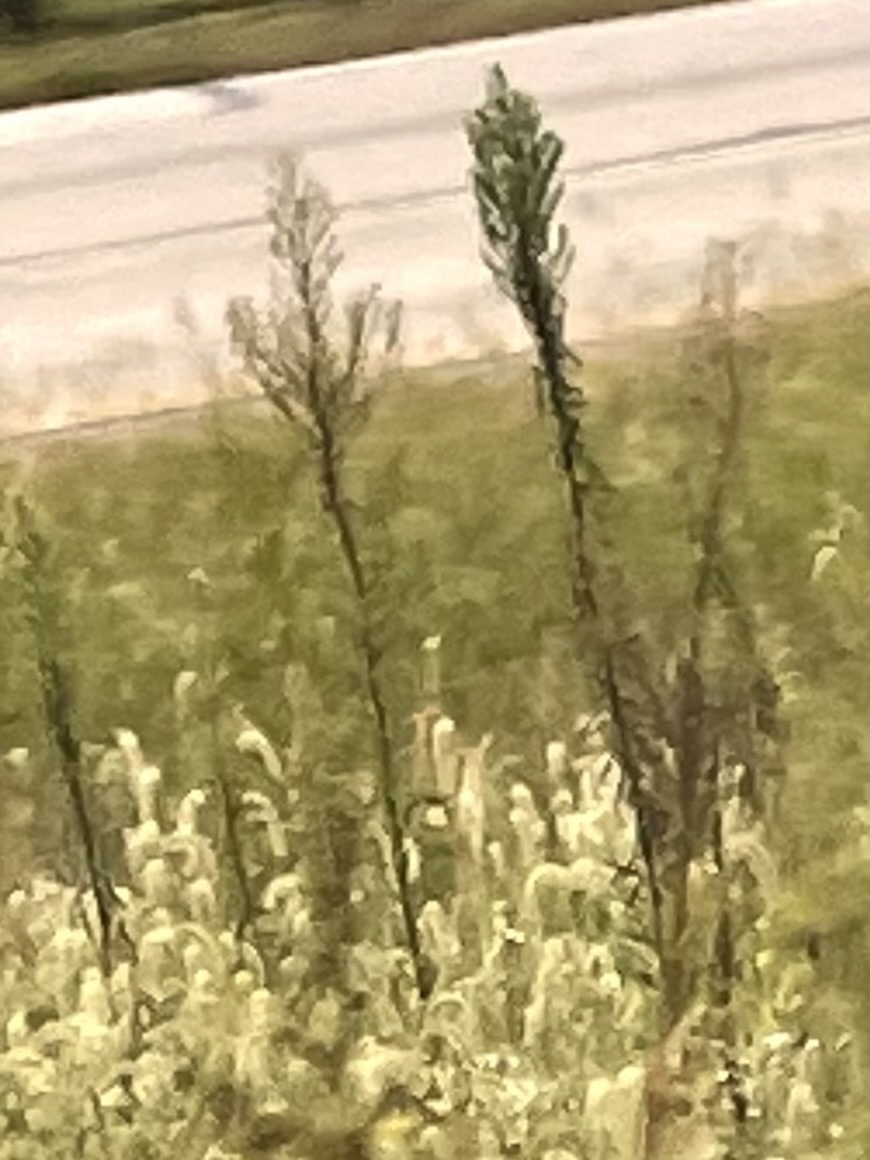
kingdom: Plantae
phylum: Tracheophyta
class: Magnoliopsida
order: Asterales
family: Asteraceae
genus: Erigeron
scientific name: Erigeron canadensis
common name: Canadian fleabane
